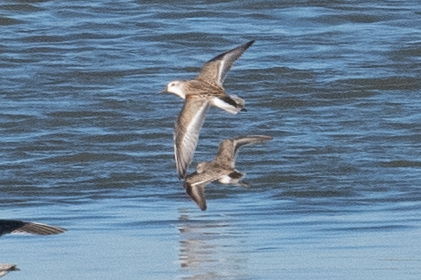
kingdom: Animalia
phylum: Chordata
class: Aves
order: Charadriiformes
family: Scolopacidae
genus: Calidris
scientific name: Calidris mauri
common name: Western sandpiper
